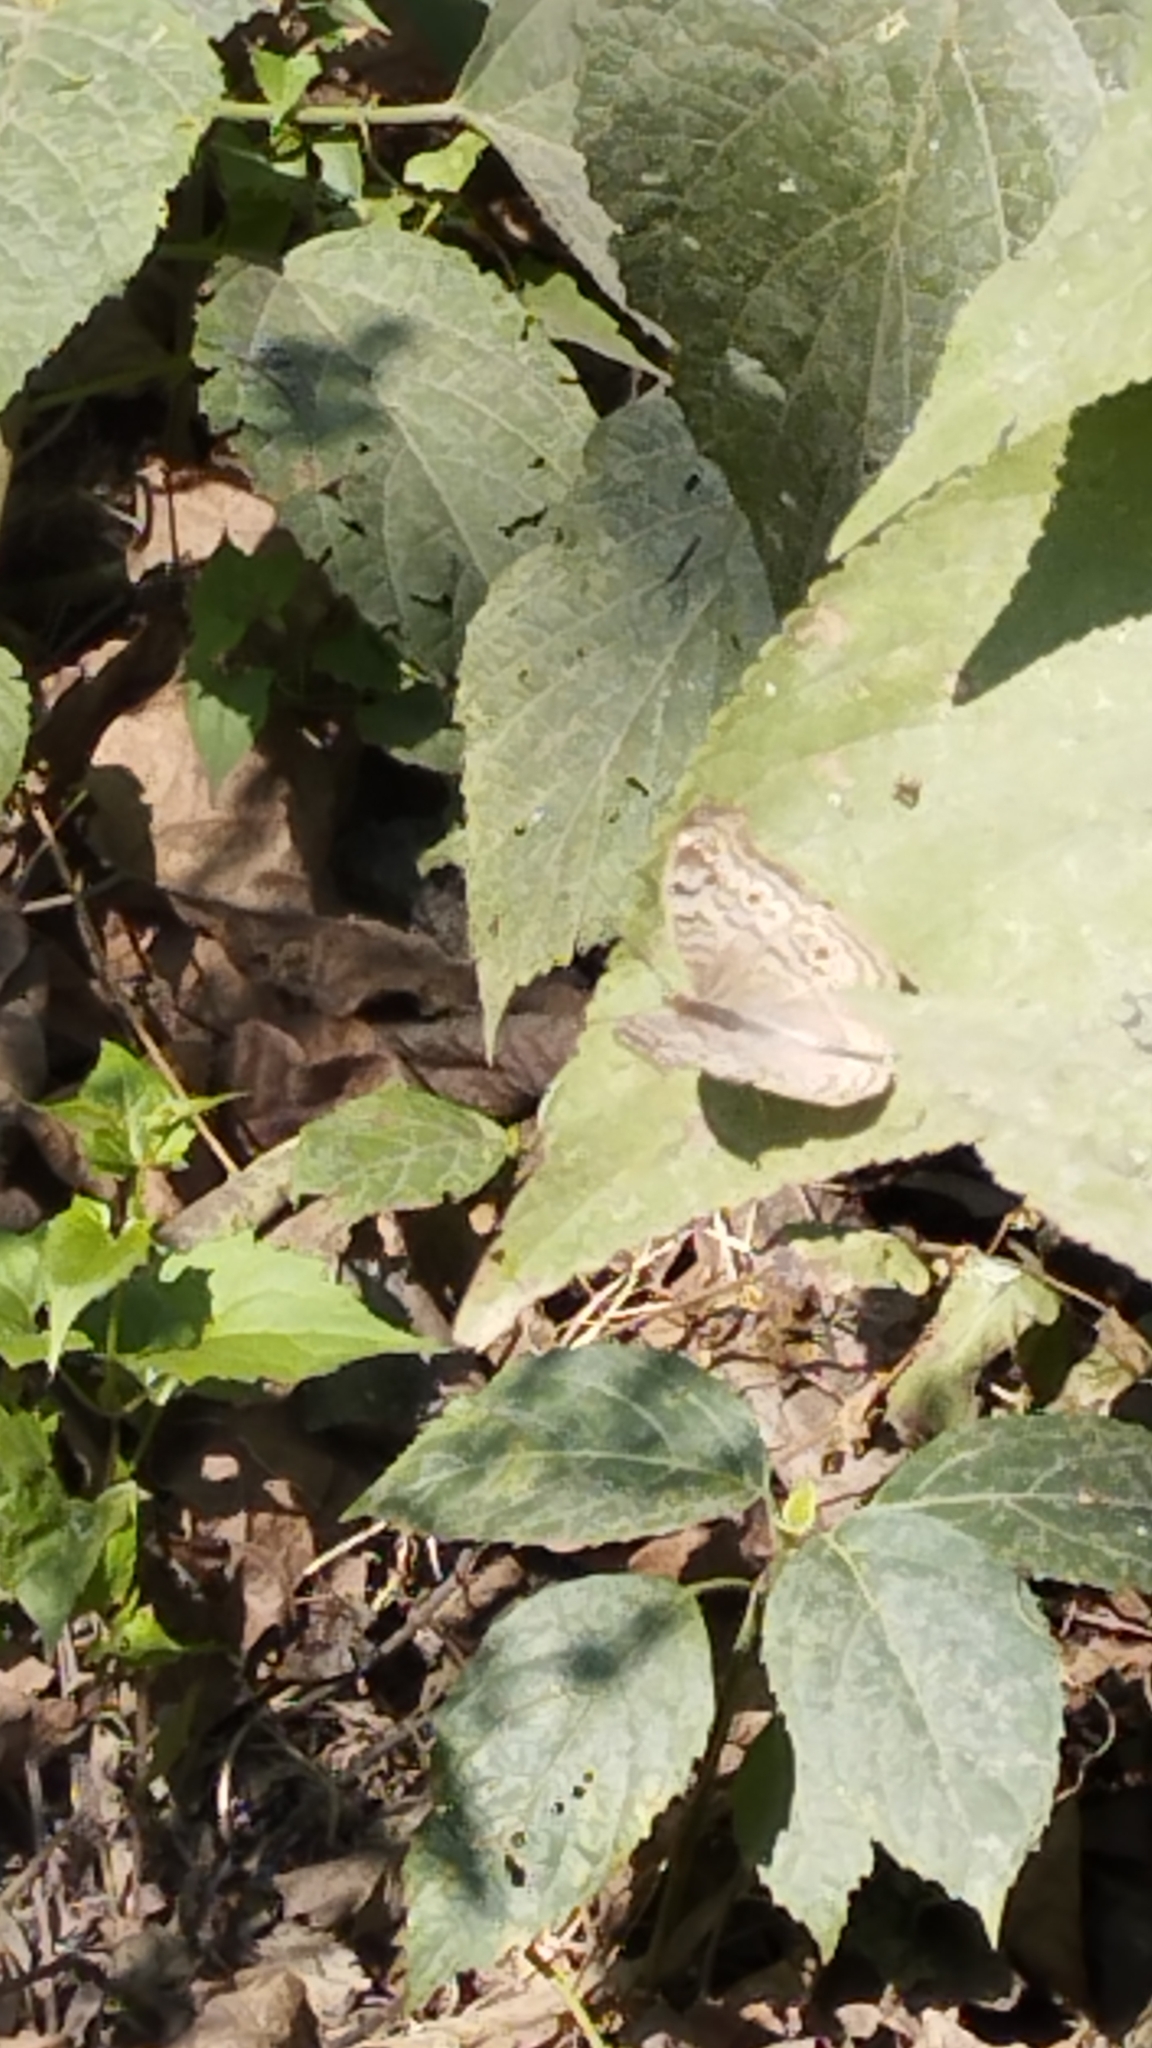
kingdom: Animalia
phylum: Arthropoda
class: Insecta
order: Lepidoptera
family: Nymphalidae
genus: Junonia
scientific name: Junonia atlites
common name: Grey pansy
